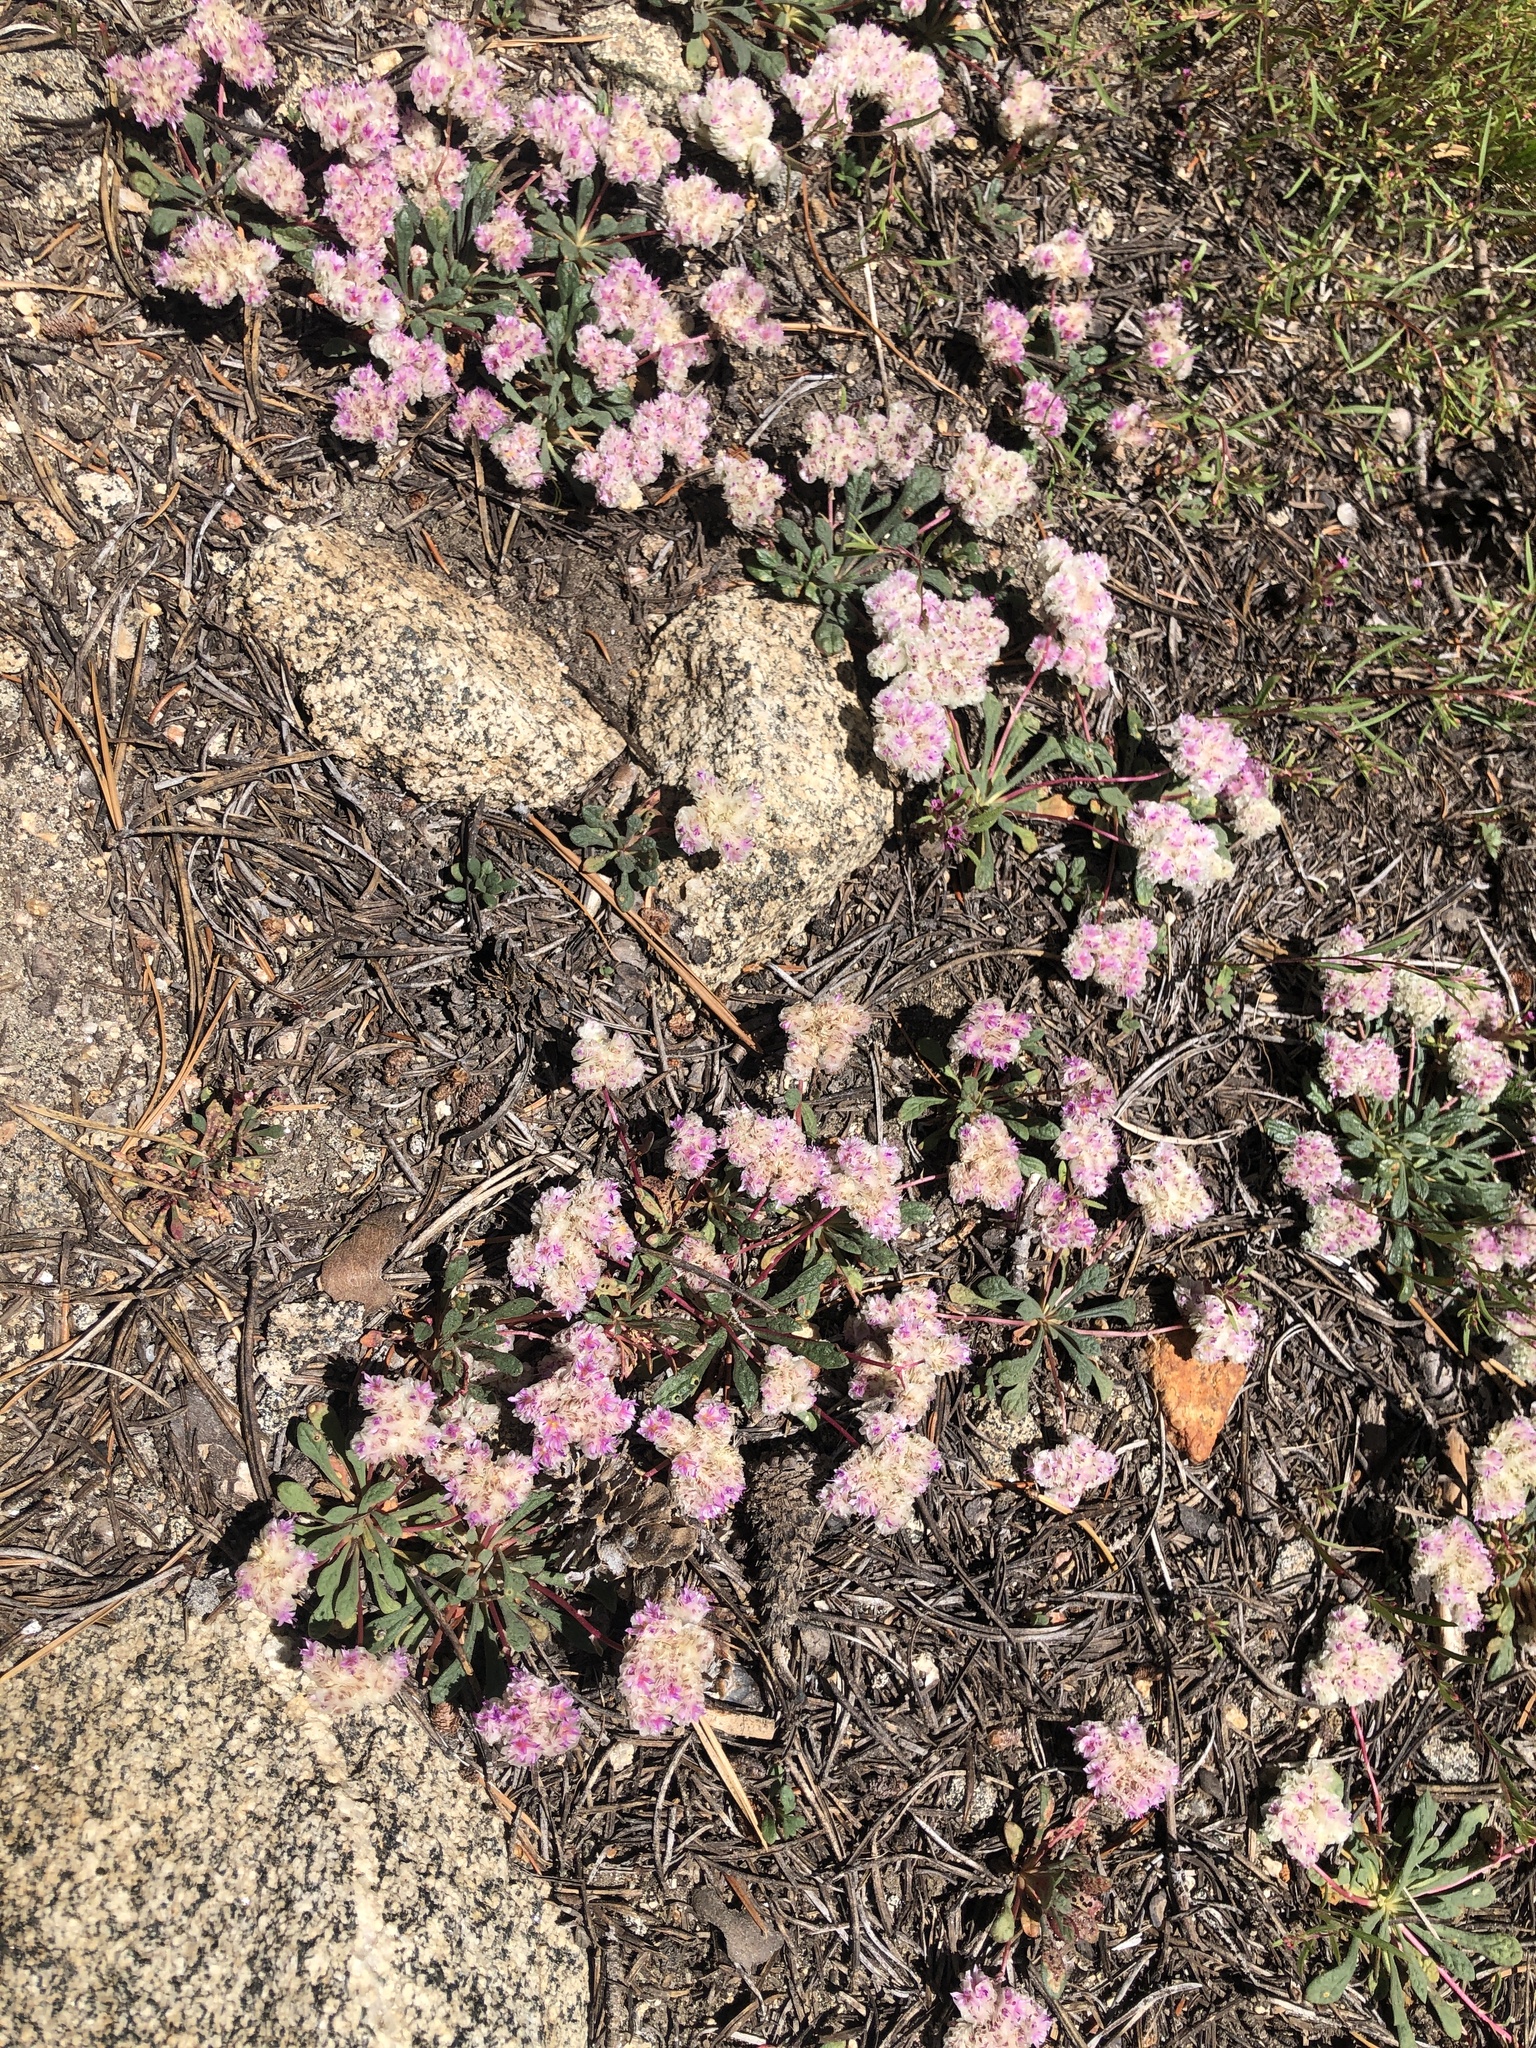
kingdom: Plantae
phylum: Tracheophyta
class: Magnoliopsida
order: Caryophyllales
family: Montiaceae
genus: Calyptridium
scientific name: Calyptridium monospermum
